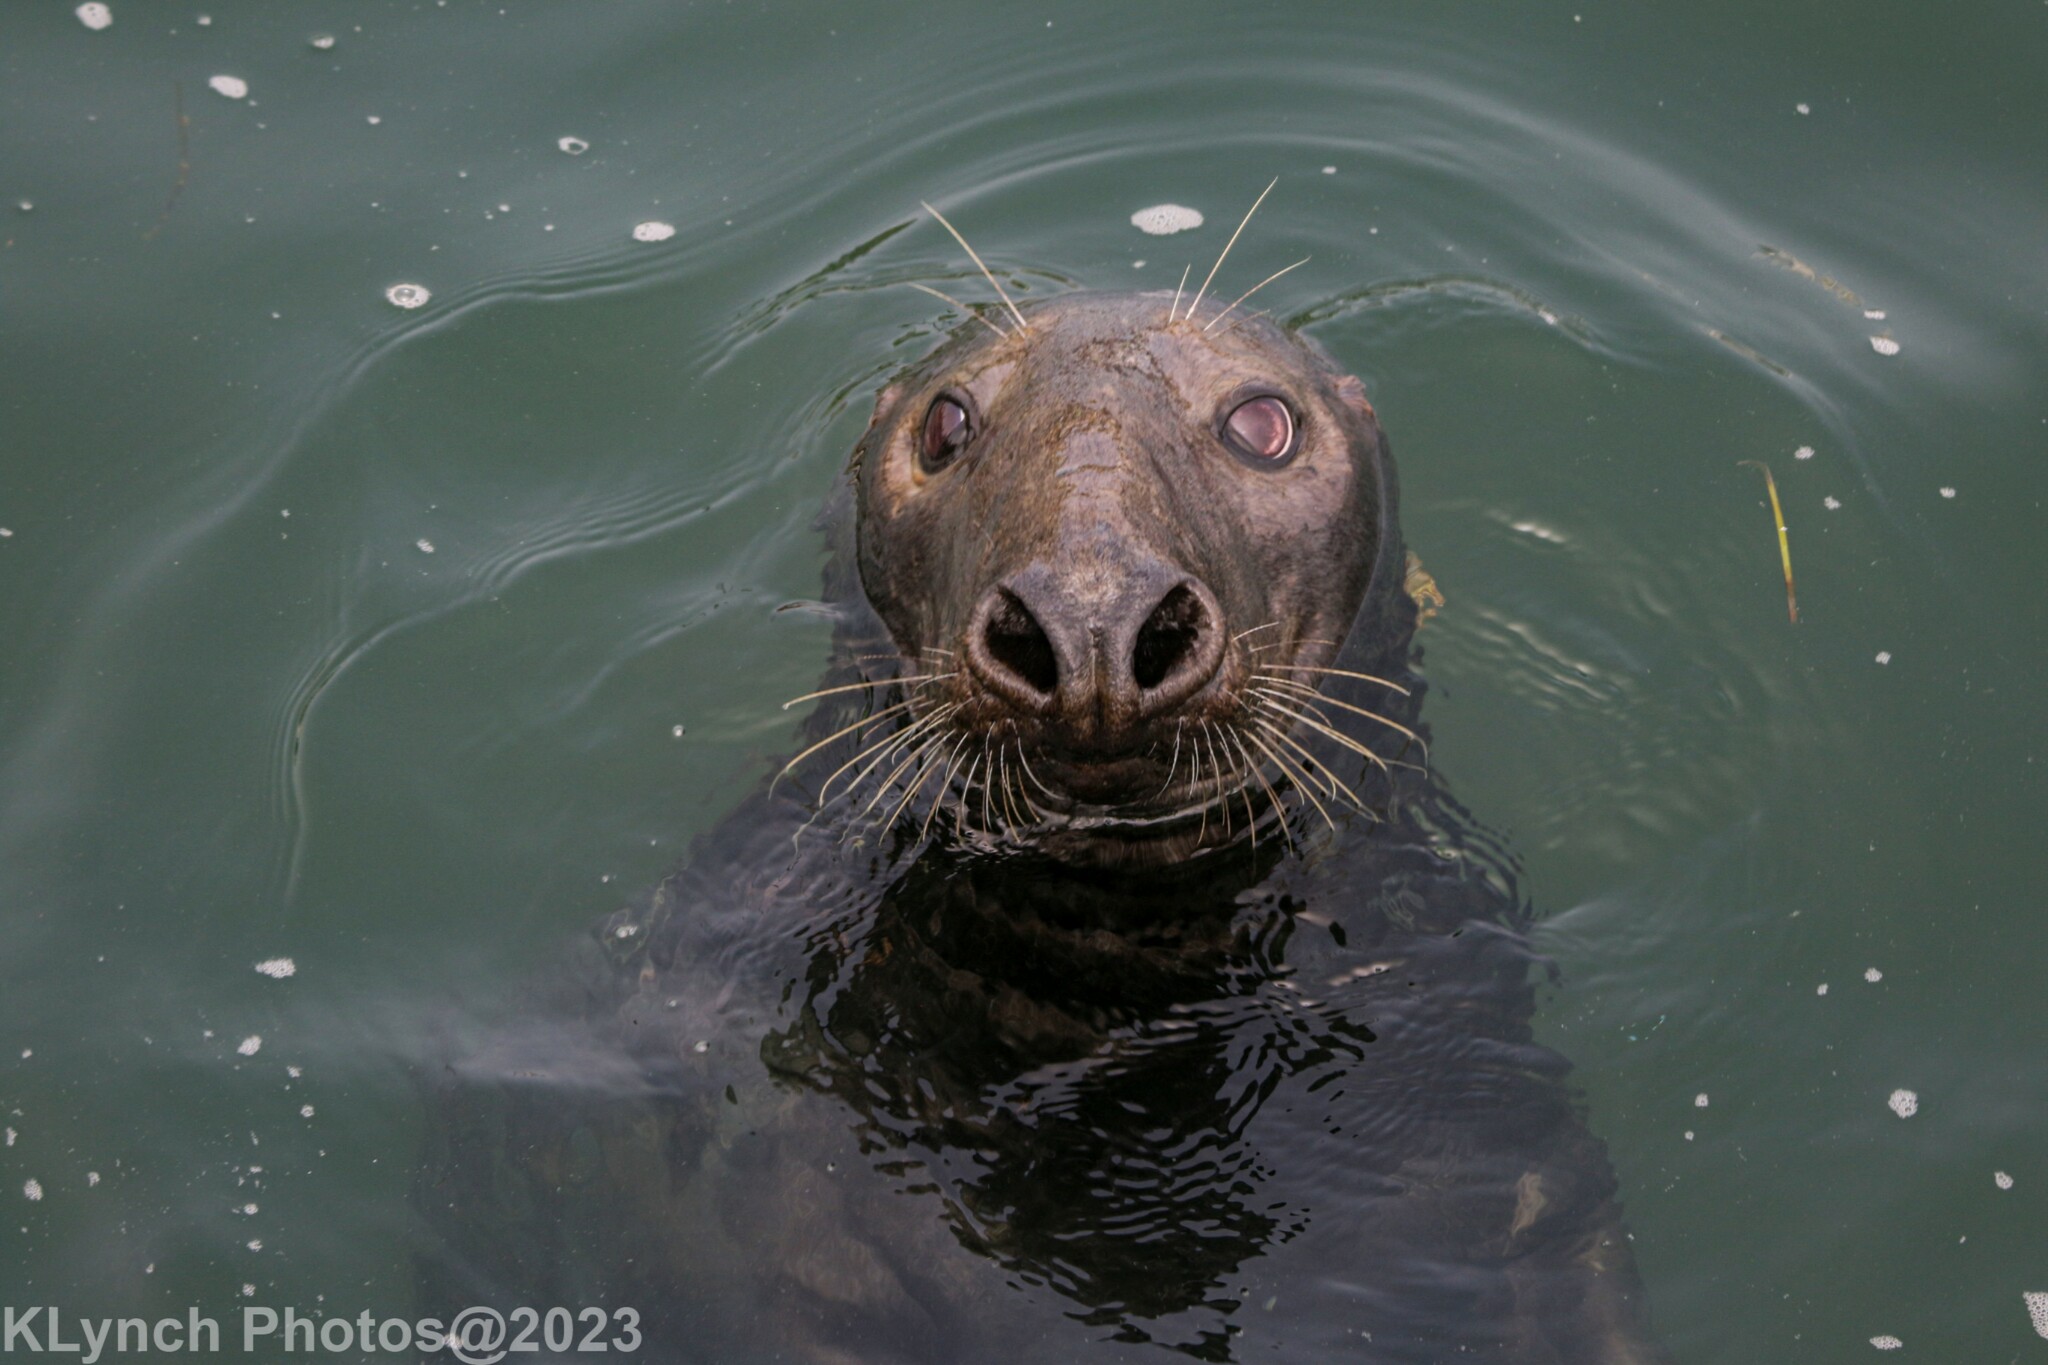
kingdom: Animalia
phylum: Chordata
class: Mammalia
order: Carnivora
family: Phocidae
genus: Halichoerus
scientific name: Halichoerus grypus
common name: Grey seal
